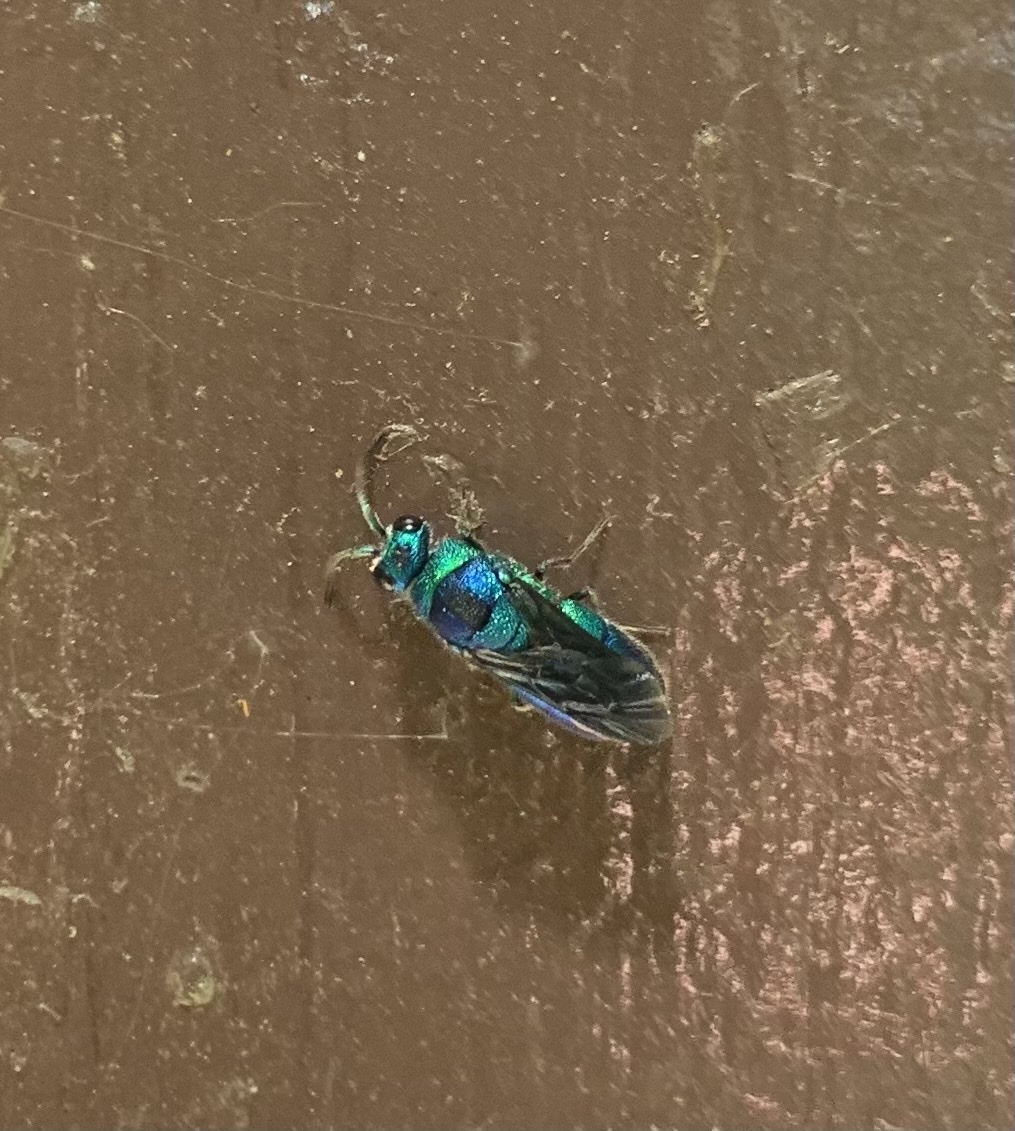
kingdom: Animalia
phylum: Arthropoda
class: Insecta
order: Hymenoptera
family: Chrysididae
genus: Chrysis
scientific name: Chrysis angolensis
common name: Cuckoo wasp
